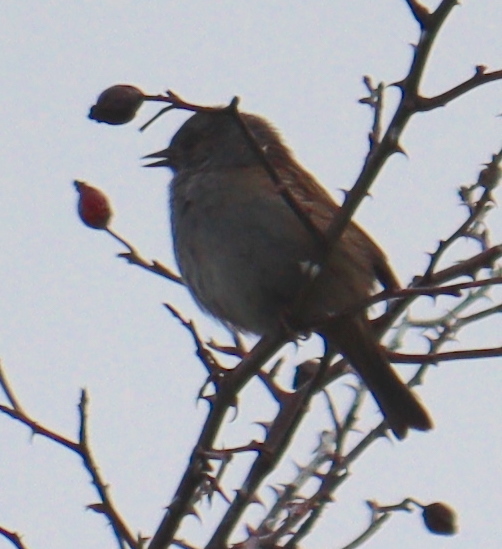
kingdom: Animalia
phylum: Chordata
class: Aves
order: Passeriformes
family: Prunellidae
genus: Prunella
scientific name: Prunella modularis
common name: Dunnock
